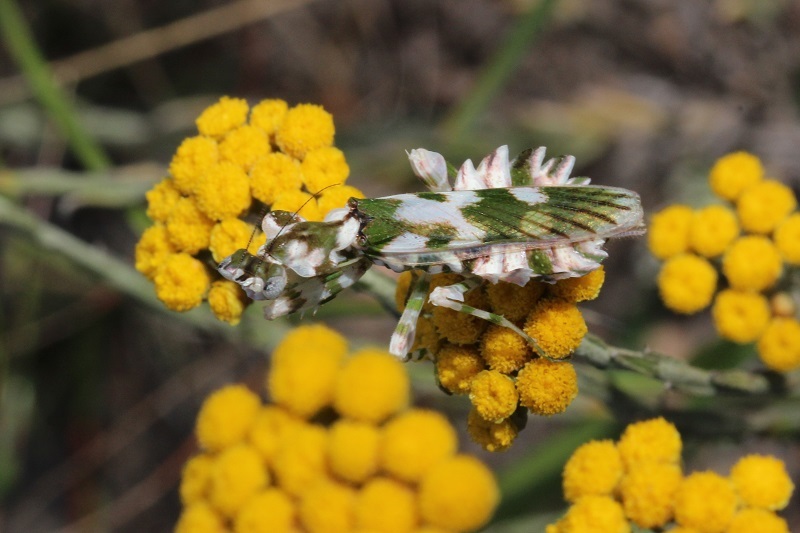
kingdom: Animalia
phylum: Arthropoda
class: Insecta
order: Mantodea
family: Galinthiadidae
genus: Harpagomantis
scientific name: Harpagomantis tricolor
